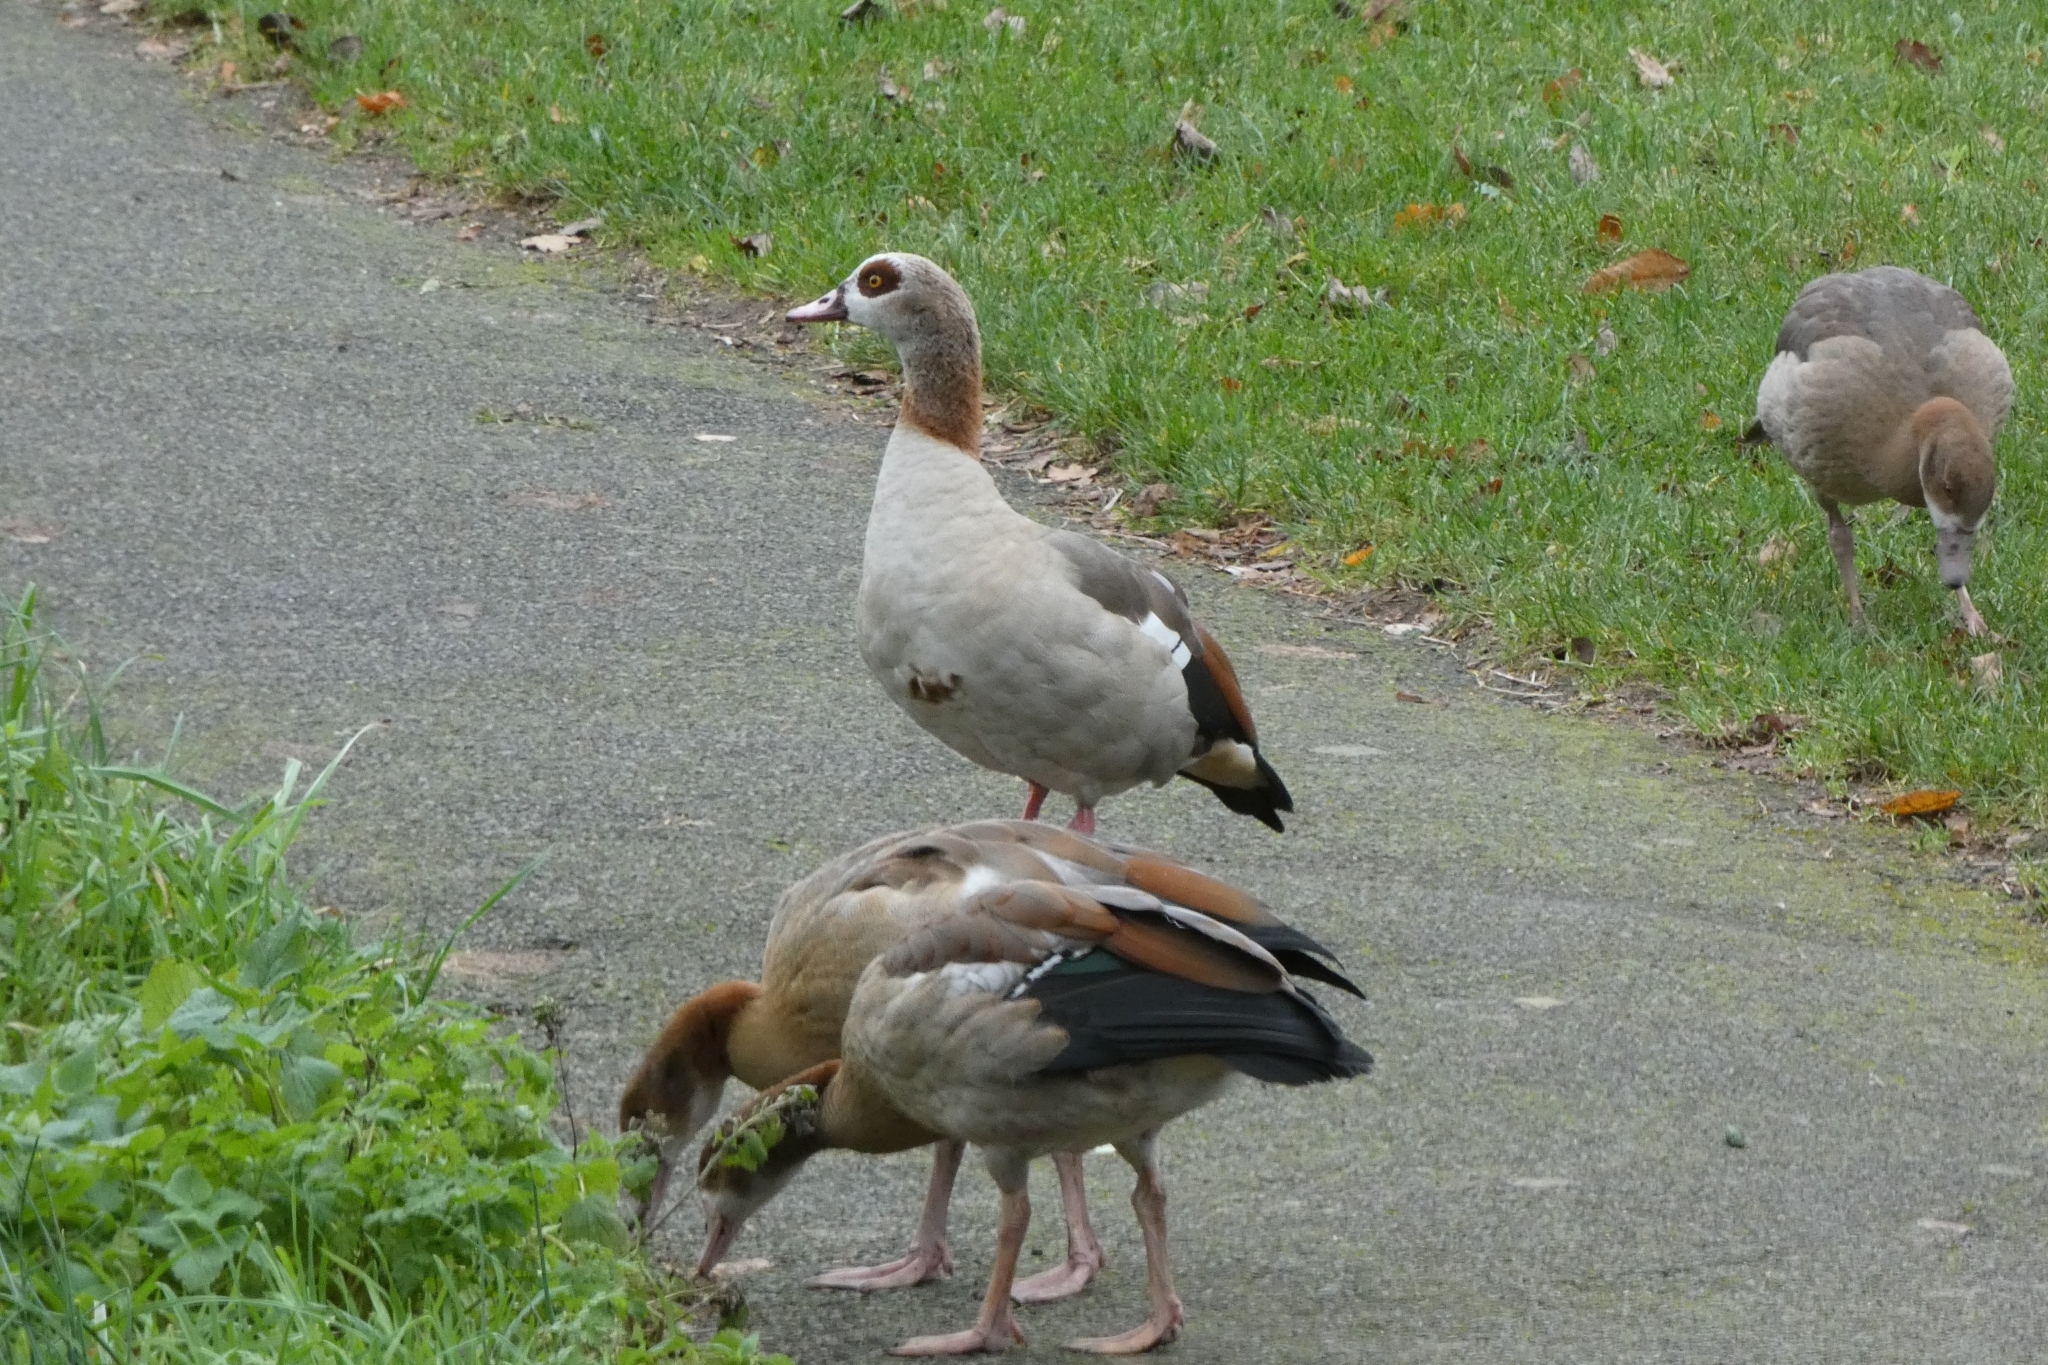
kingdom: Animalia
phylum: Chordata
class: Aves
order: Anseriformes
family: Anatidae
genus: Alopochen
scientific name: Alopochen aegyptiaca
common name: Egyptian goose
